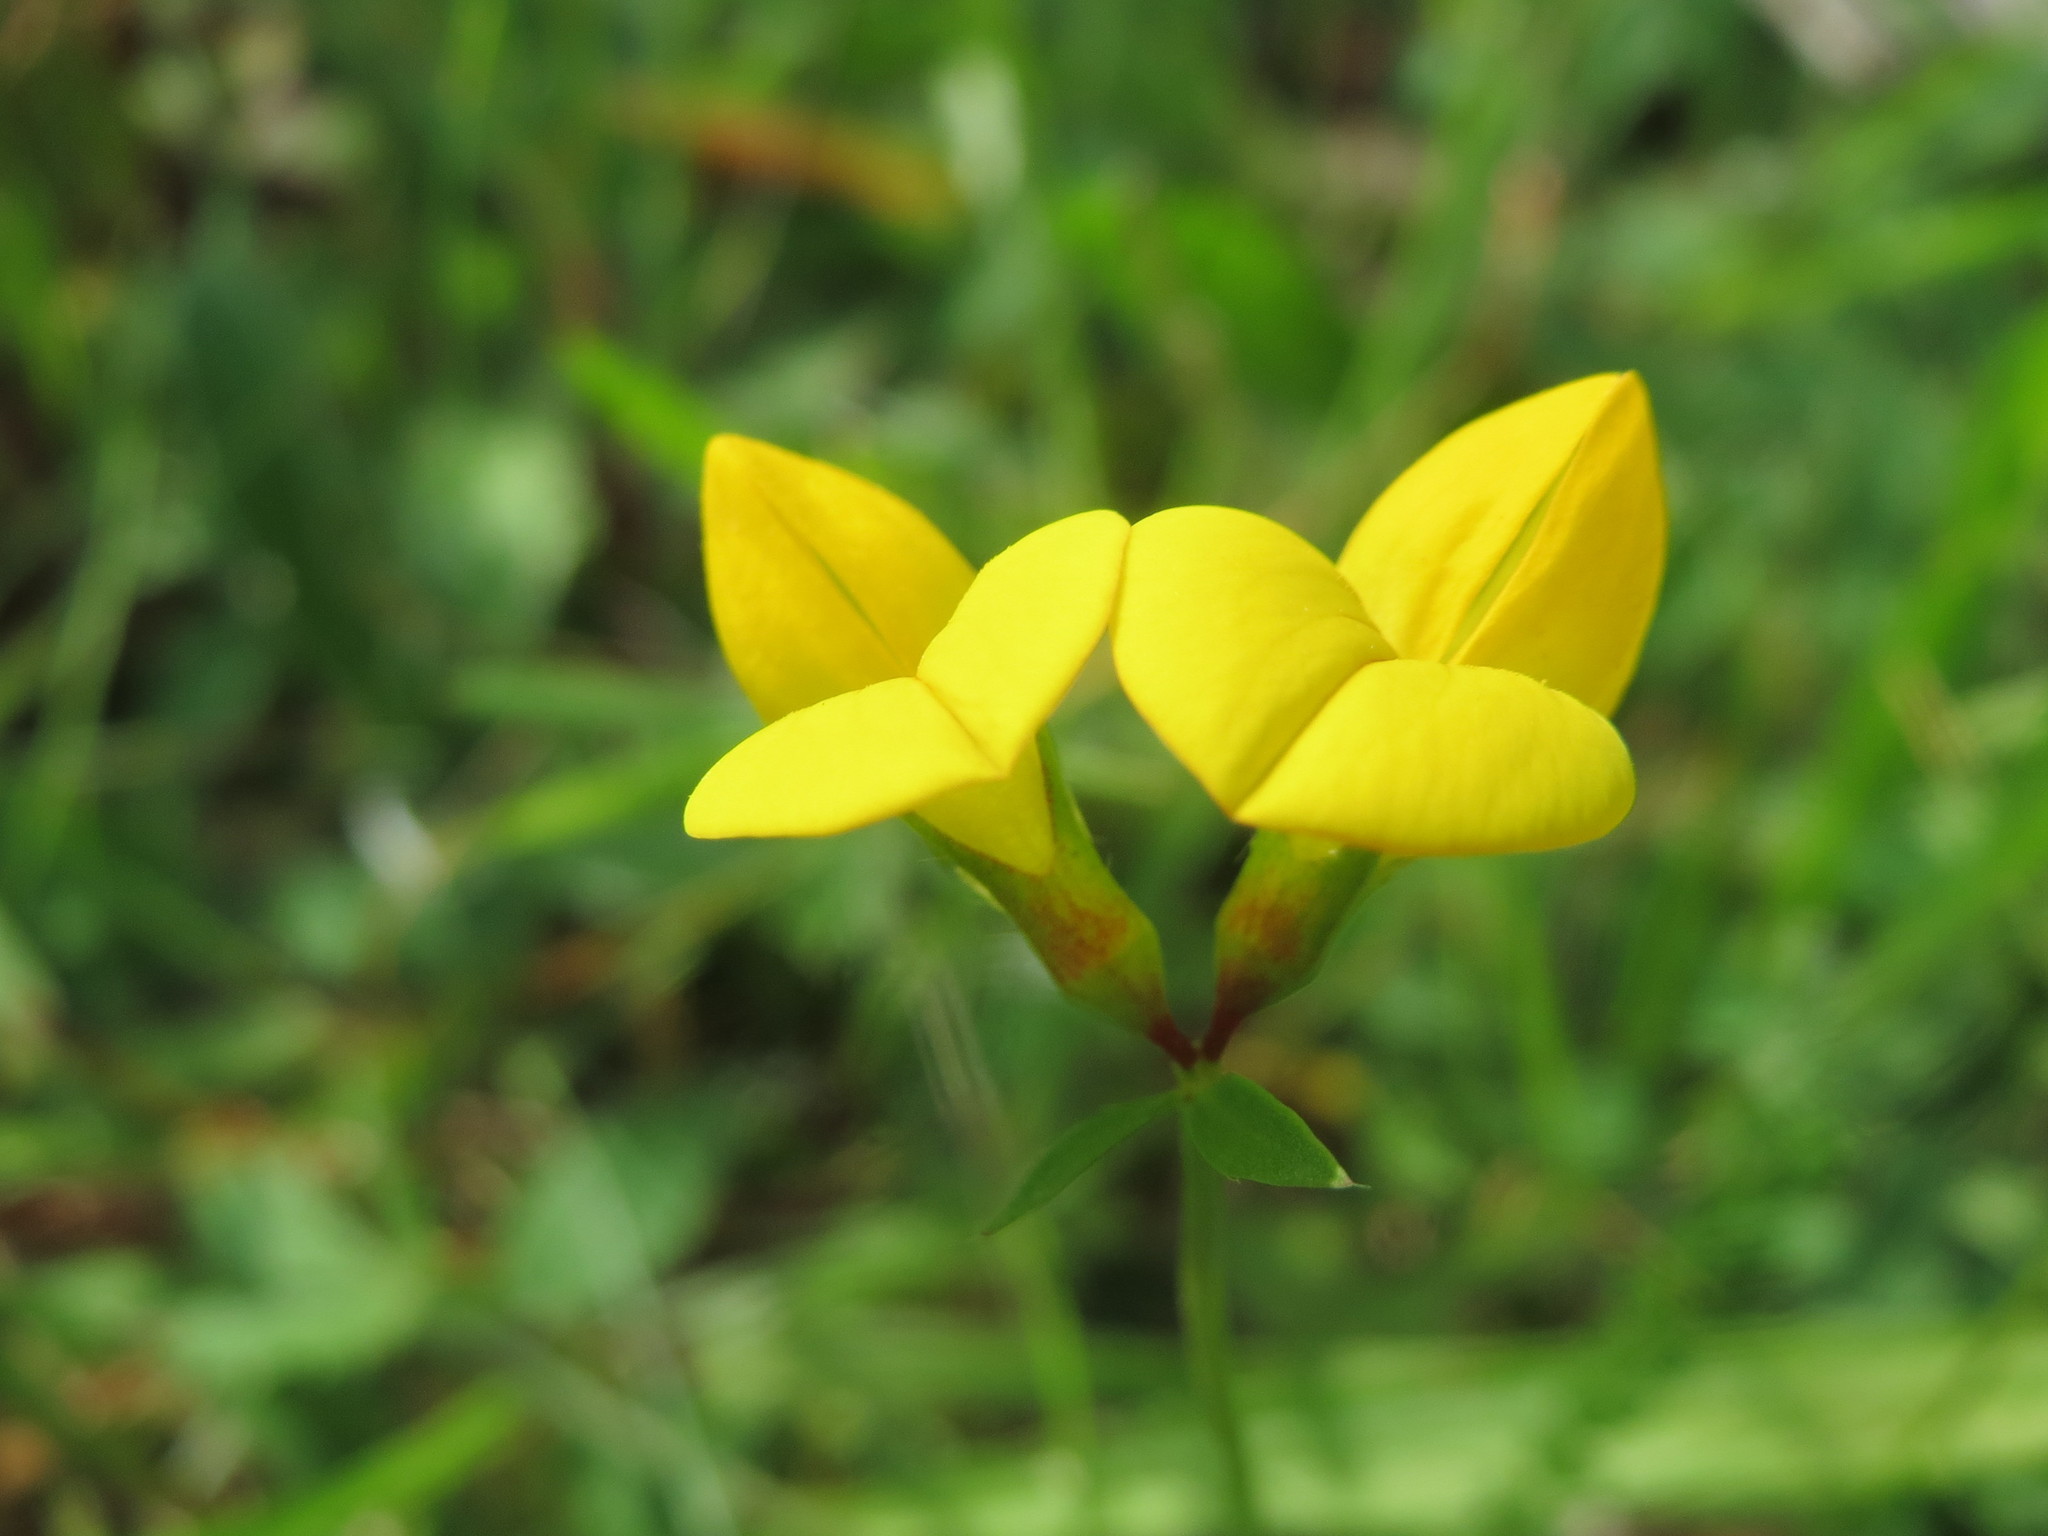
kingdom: Plantae
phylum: Tracheophyta
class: Magnoliopsida
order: Fabales
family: Fabaceae
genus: Lotus
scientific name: Lotus corniculatus
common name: Common bird's-foot-trefoil
